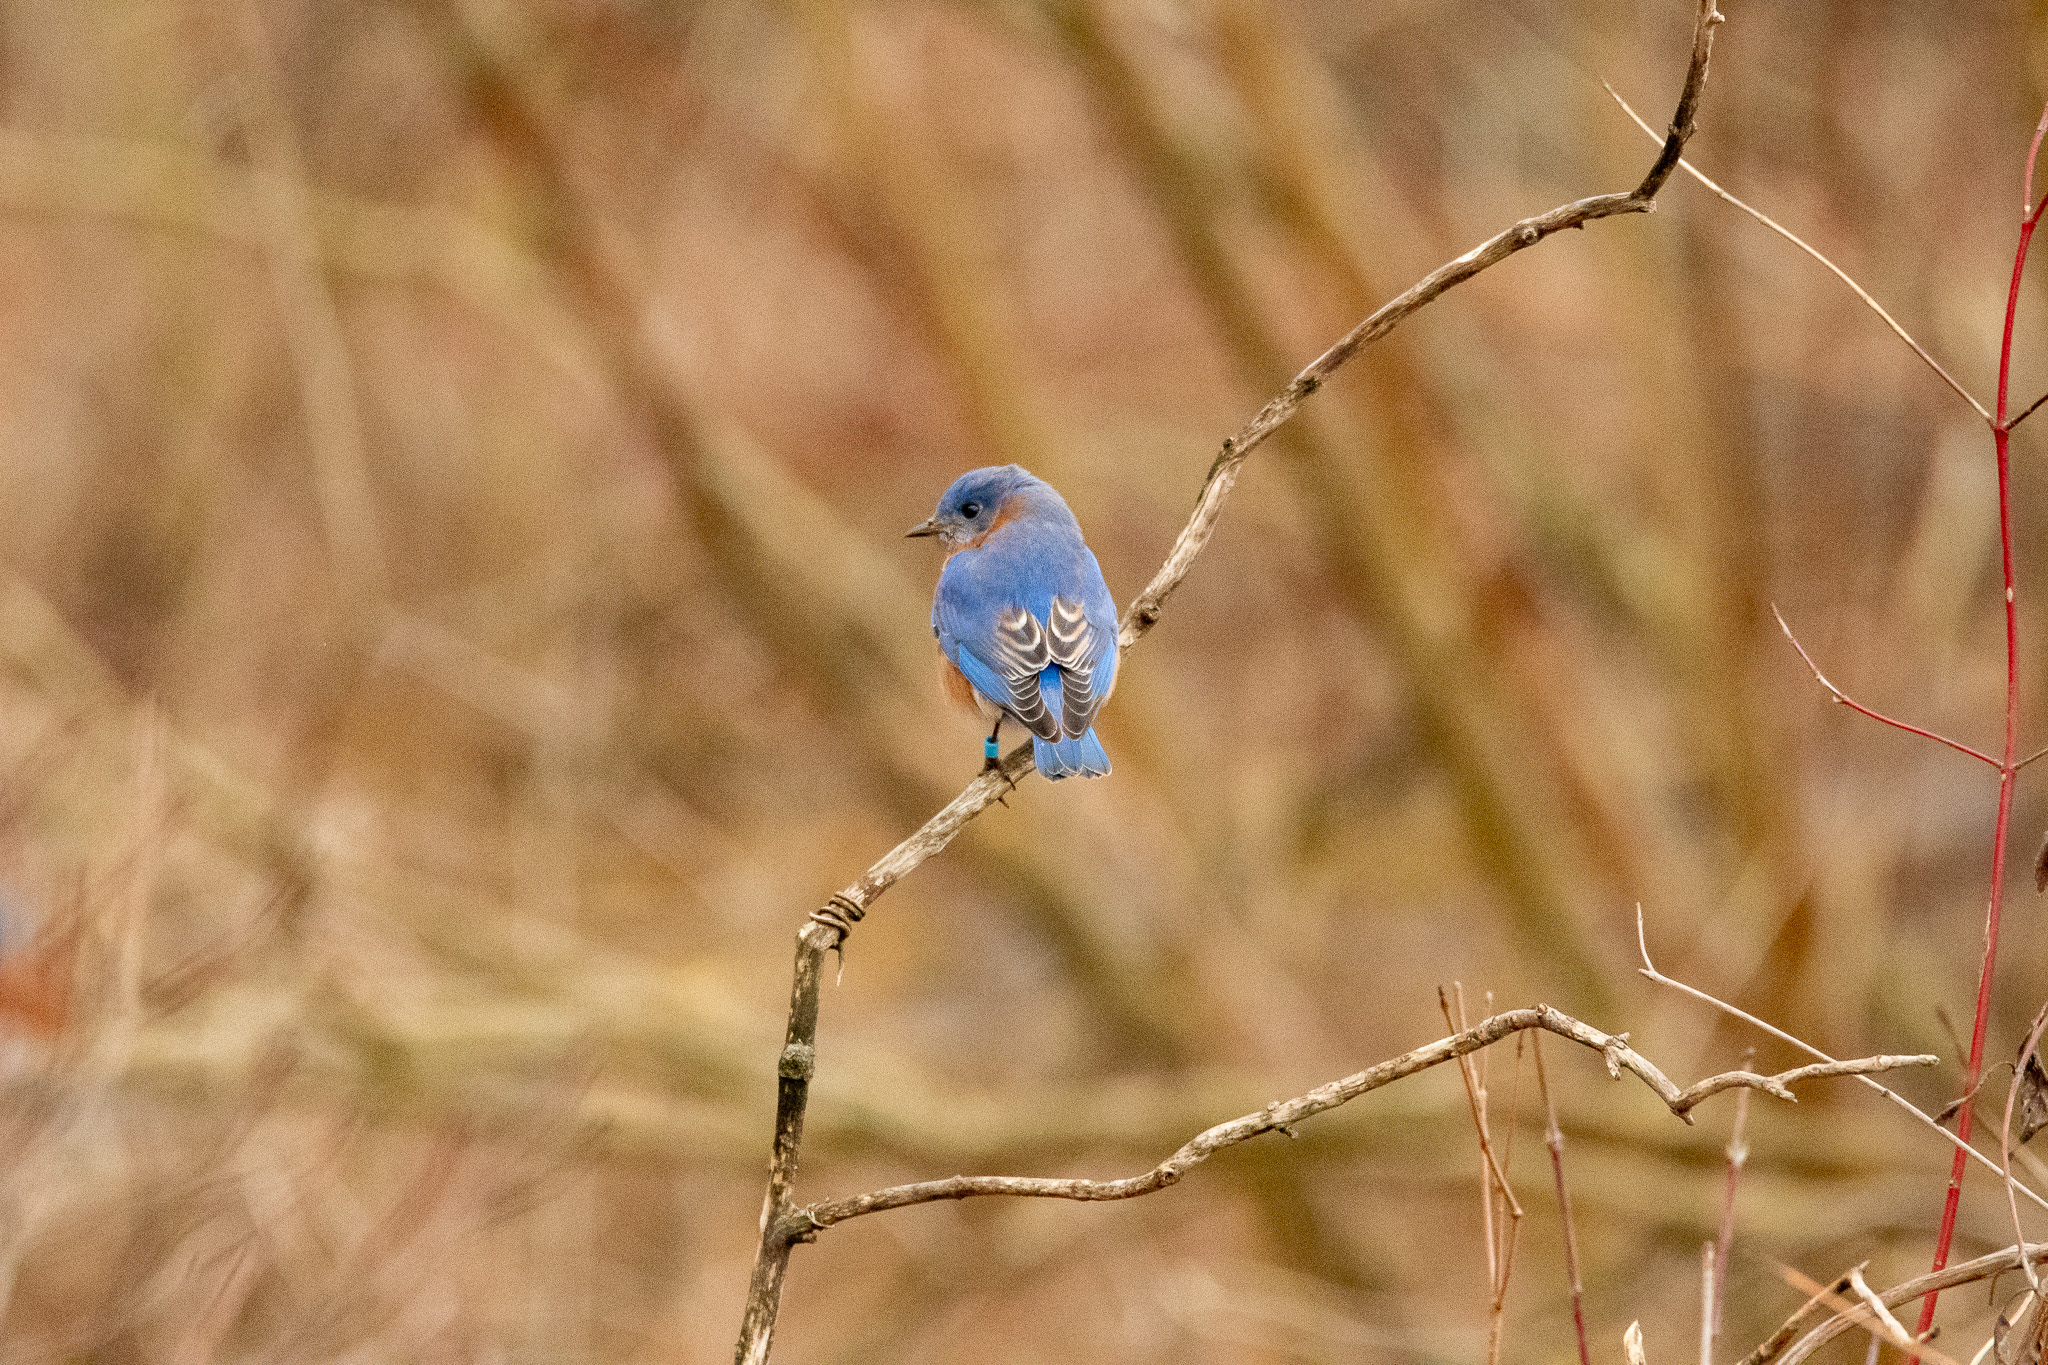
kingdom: Animalia
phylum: Chordata
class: Aves
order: Passeriformes
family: Turdidae
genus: Sialia
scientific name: Sialia sialis
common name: Eastern bluebird
